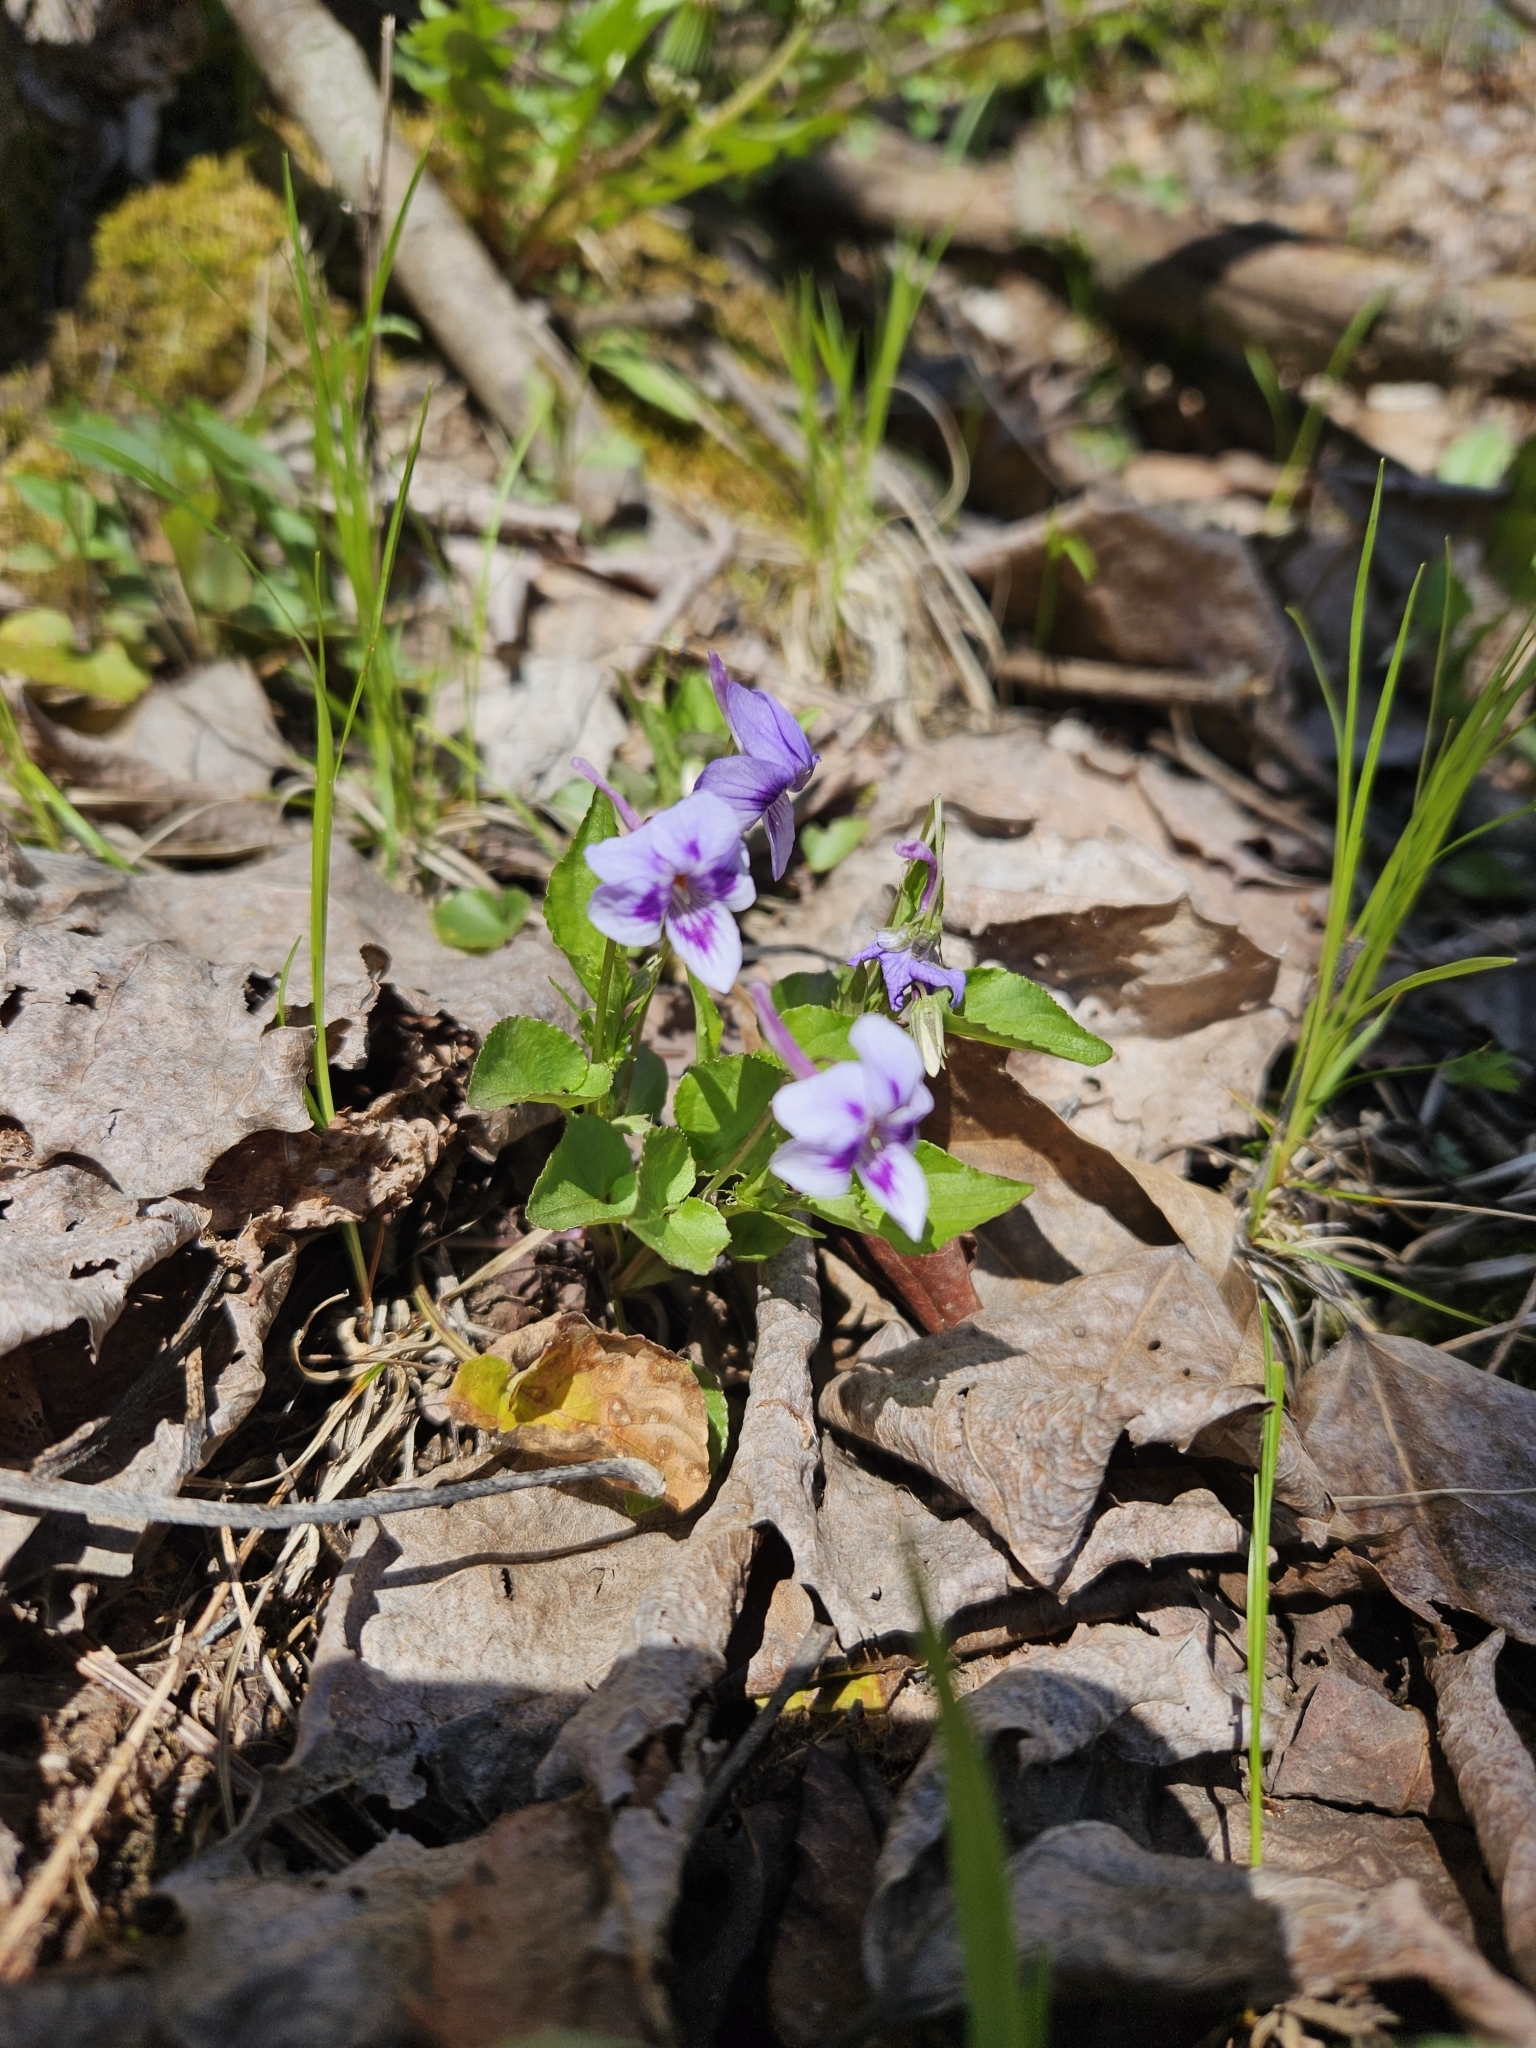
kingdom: Plantae
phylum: Tracheophyta
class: Magnoliopsida
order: Malpighiales
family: Violaceae
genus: Viola
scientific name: Viola rostrata
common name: Long-spur violet
